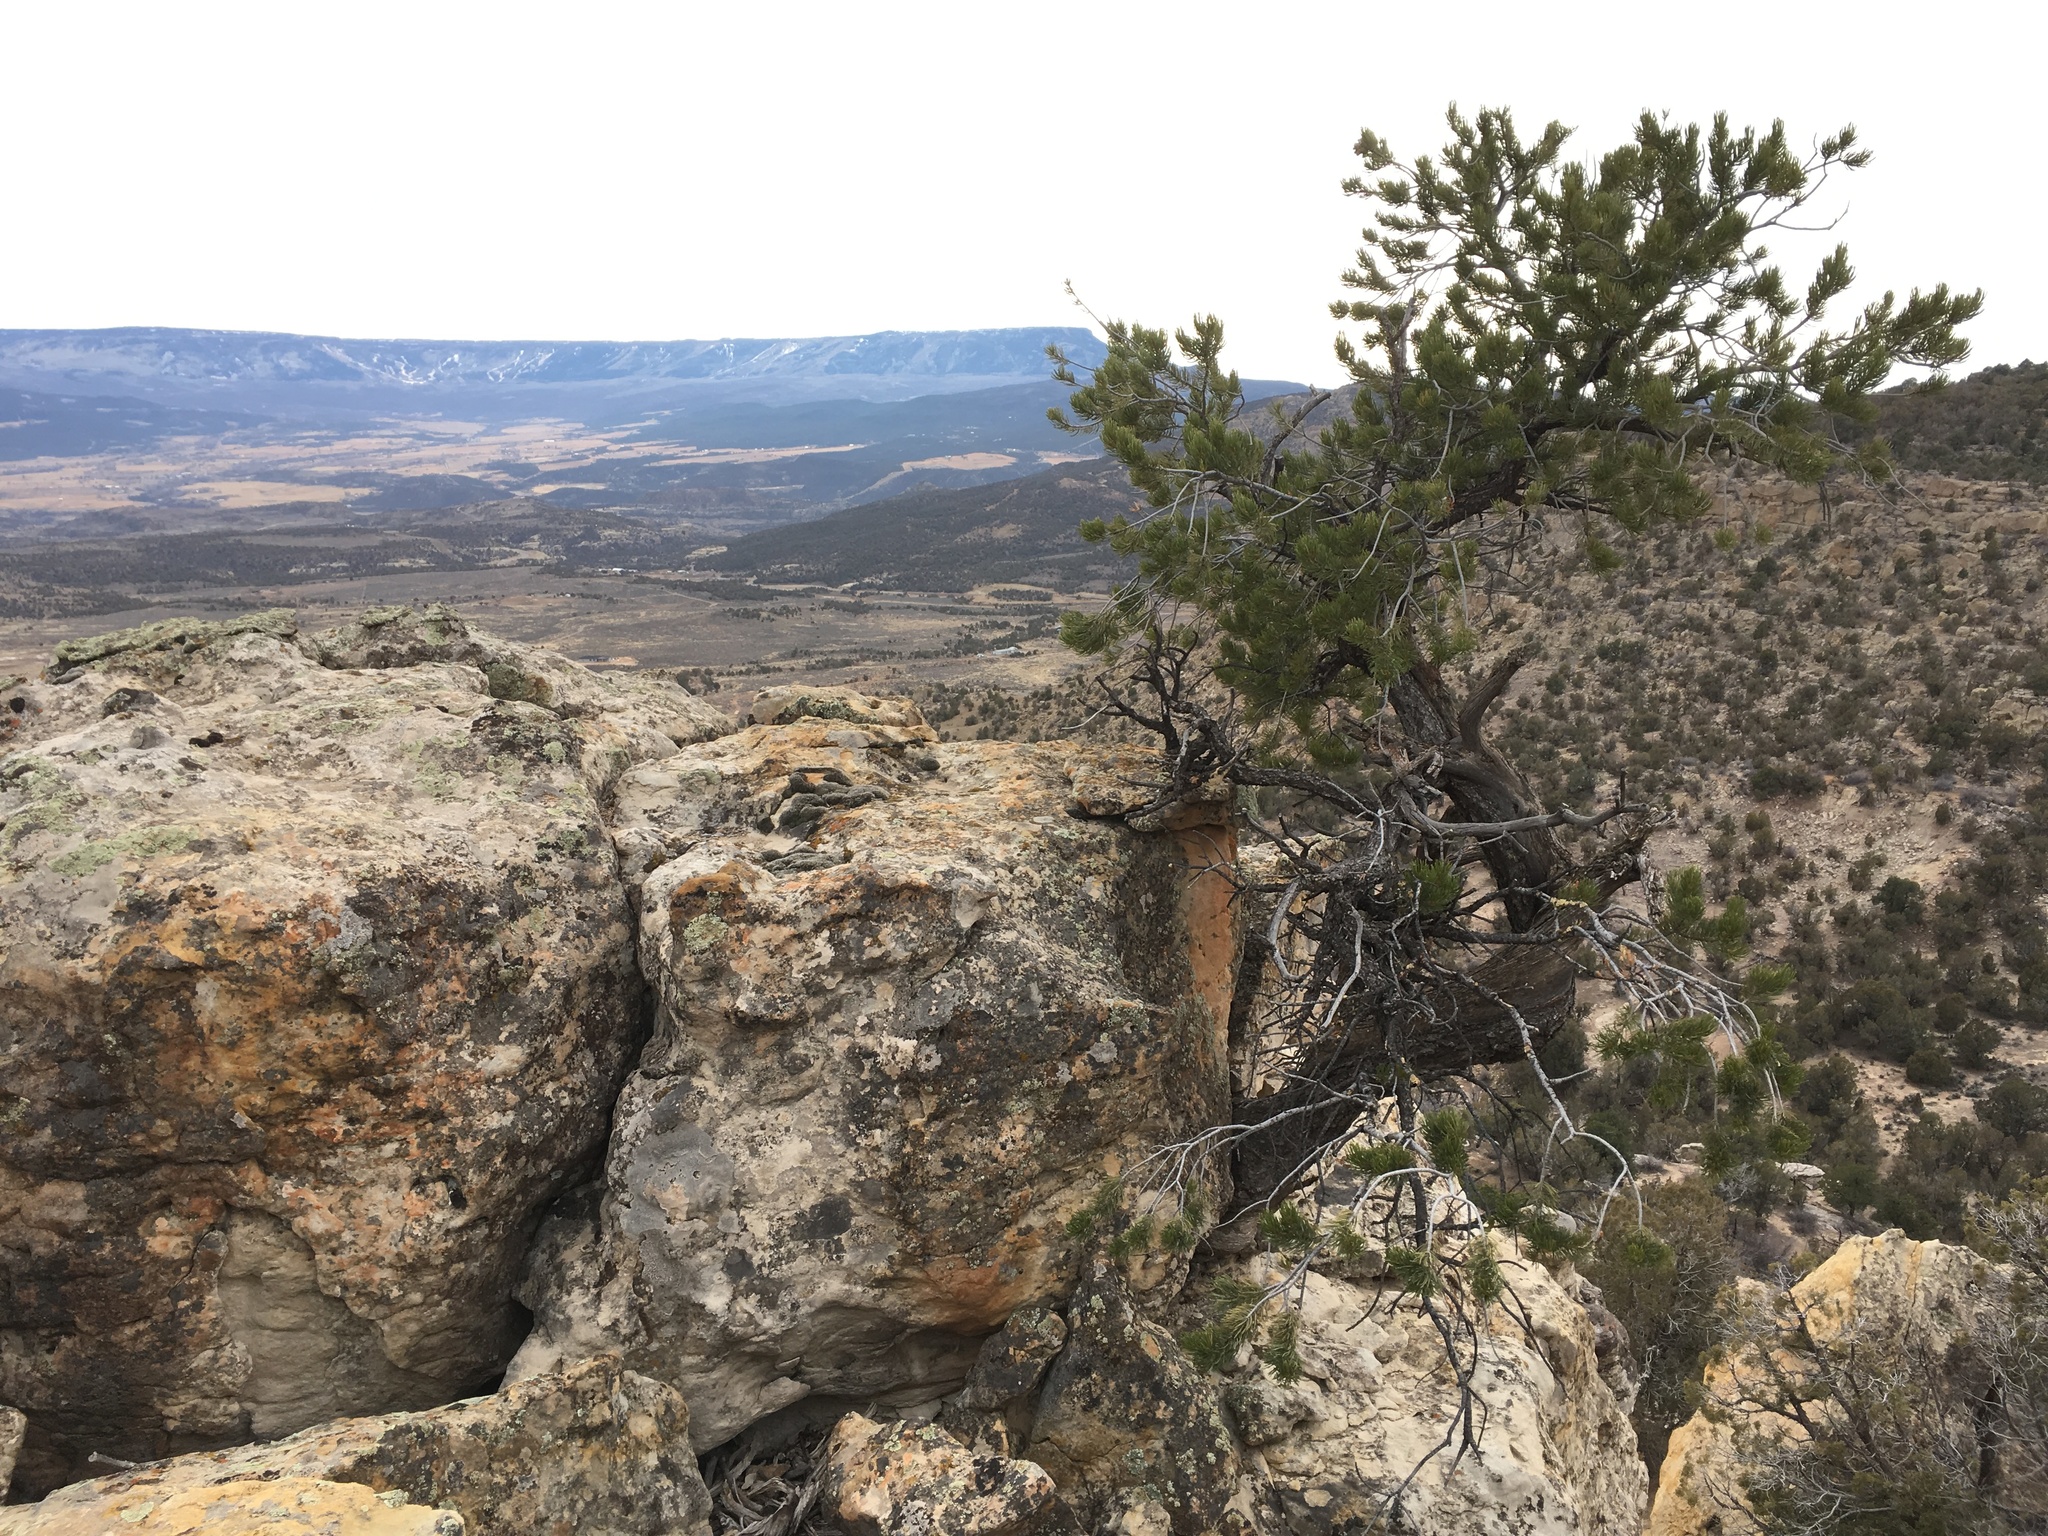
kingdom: Plantae
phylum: Tracheophyta
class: Pinopsida
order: Pinales
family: Pinaceae
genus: Pinus
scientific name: Pinus edulis
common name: Colorado pinyon
